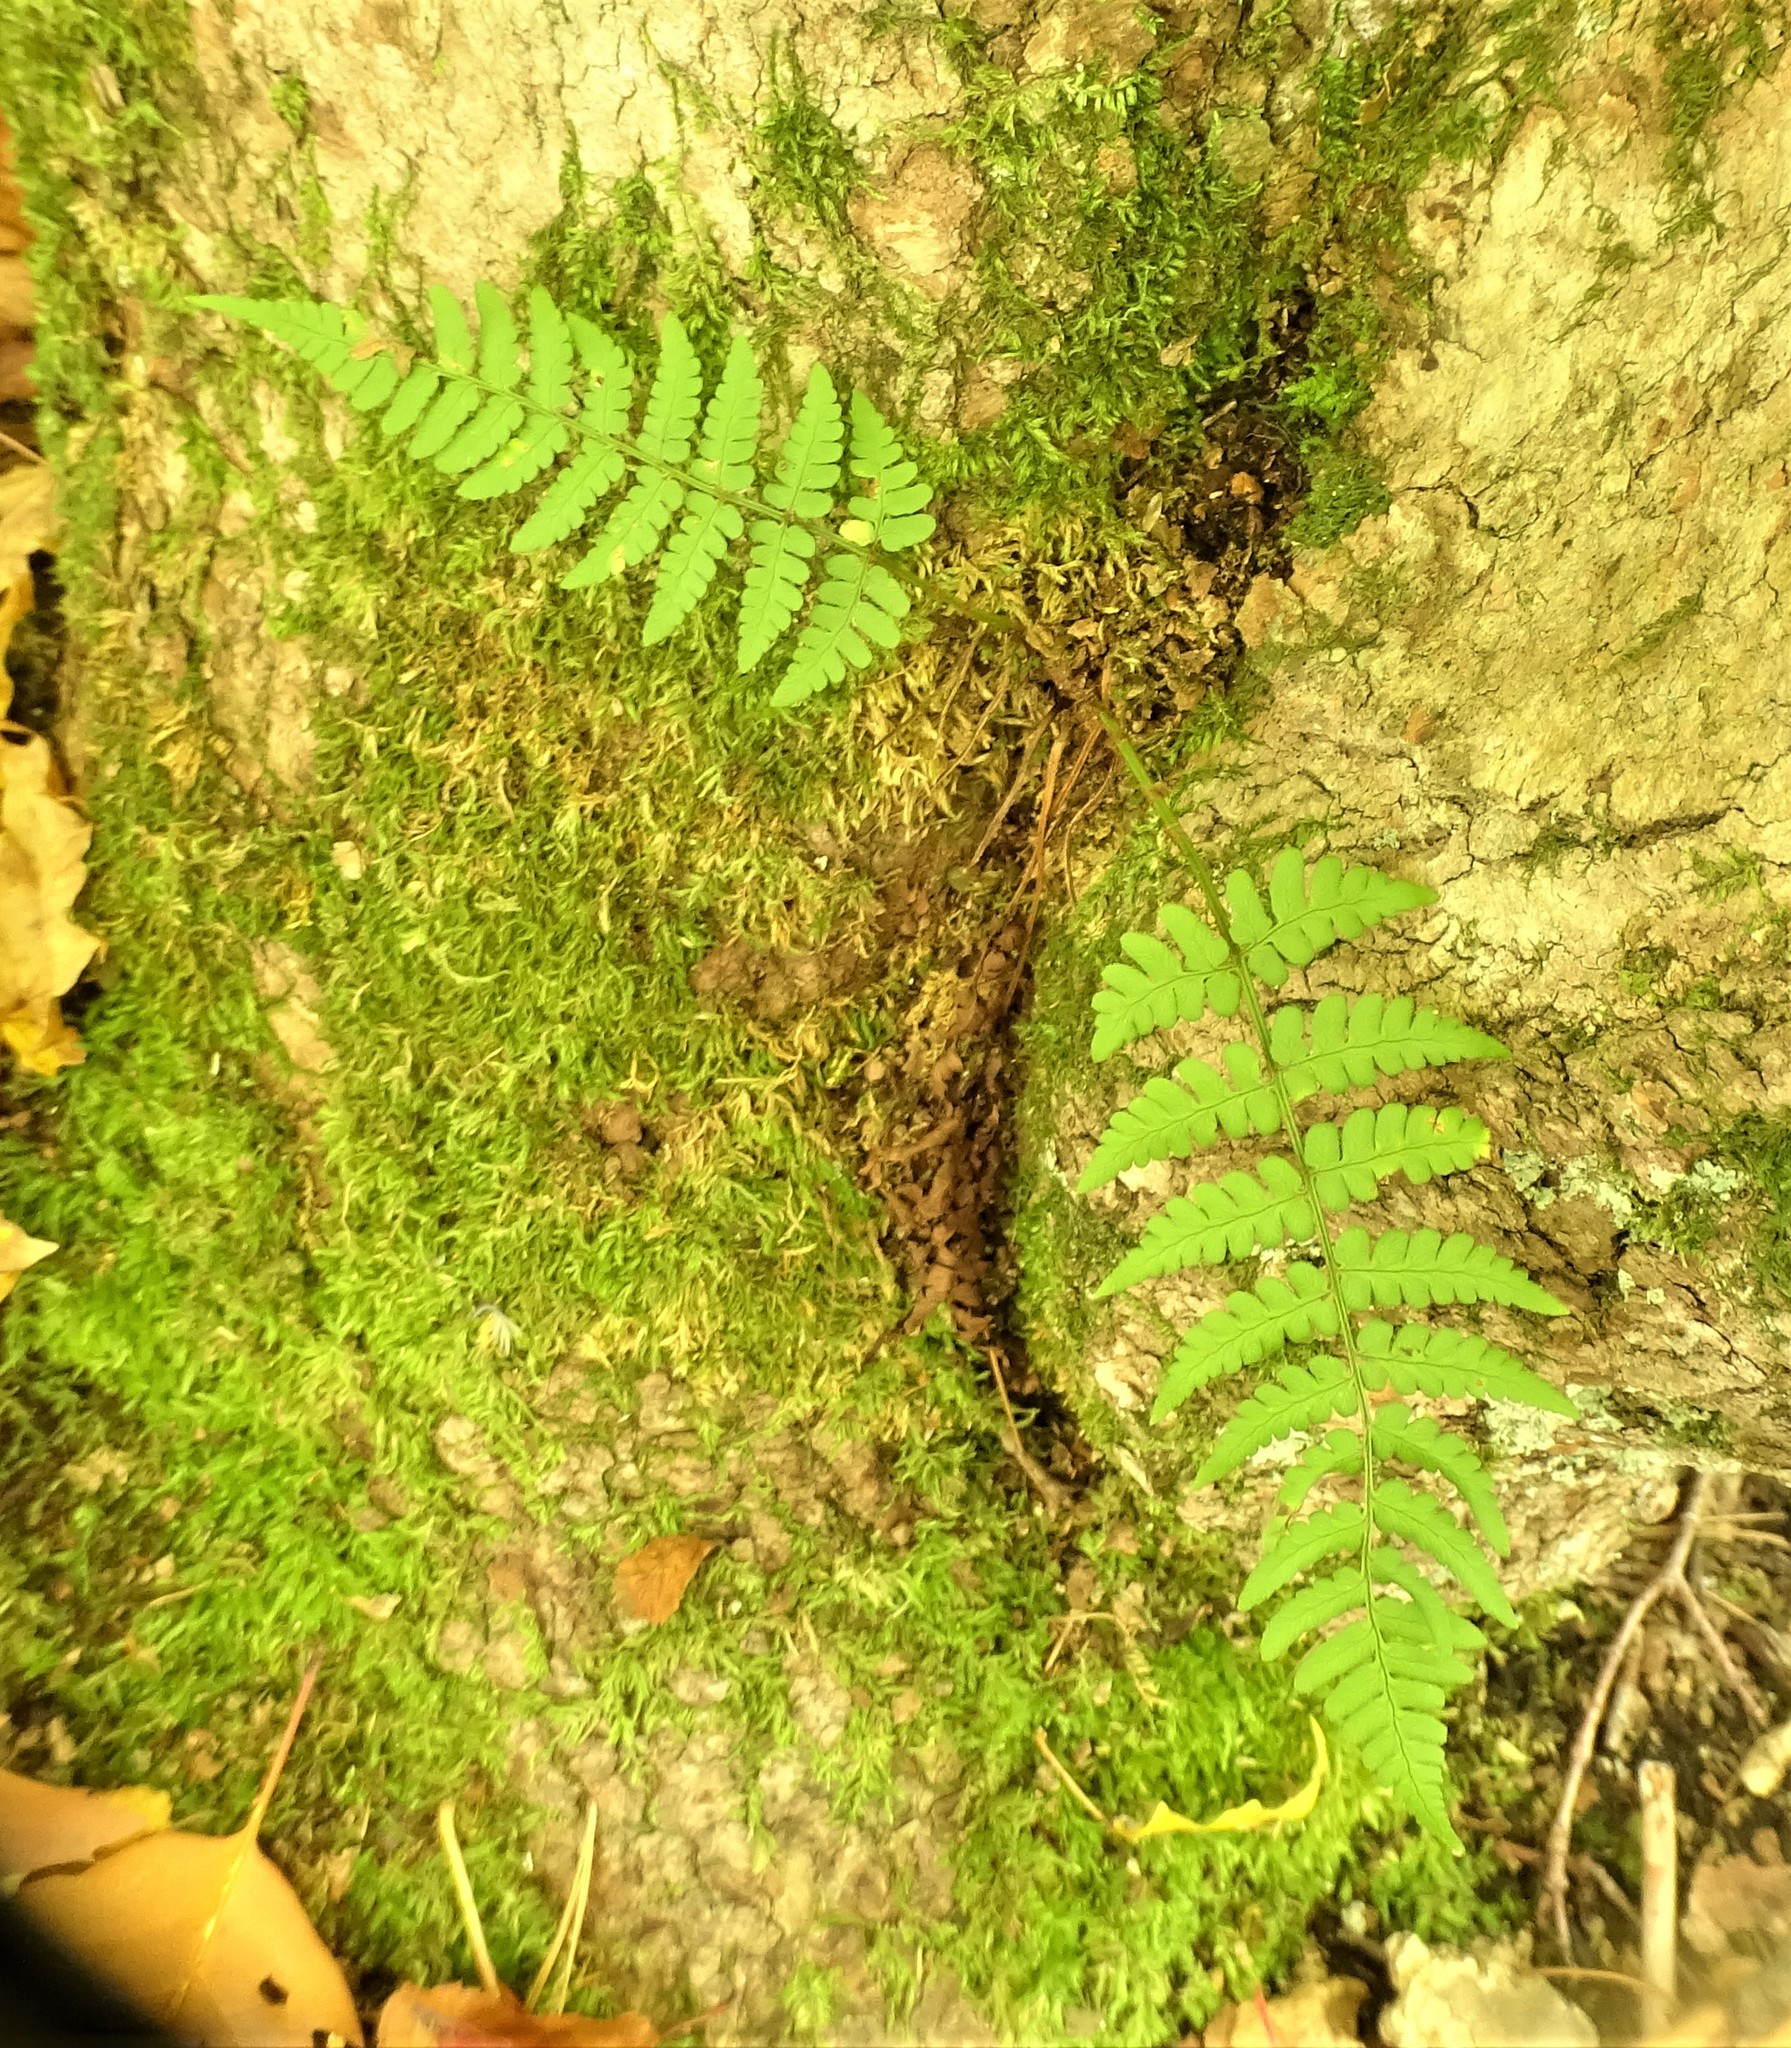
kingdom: Plantae
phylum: Tracheophyta
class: Polypodiopsida
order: Polypodiales
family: Dryopteridaceae
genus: Dryopteris
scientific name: Dryopteris marginalis
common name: Marginal wood fern
